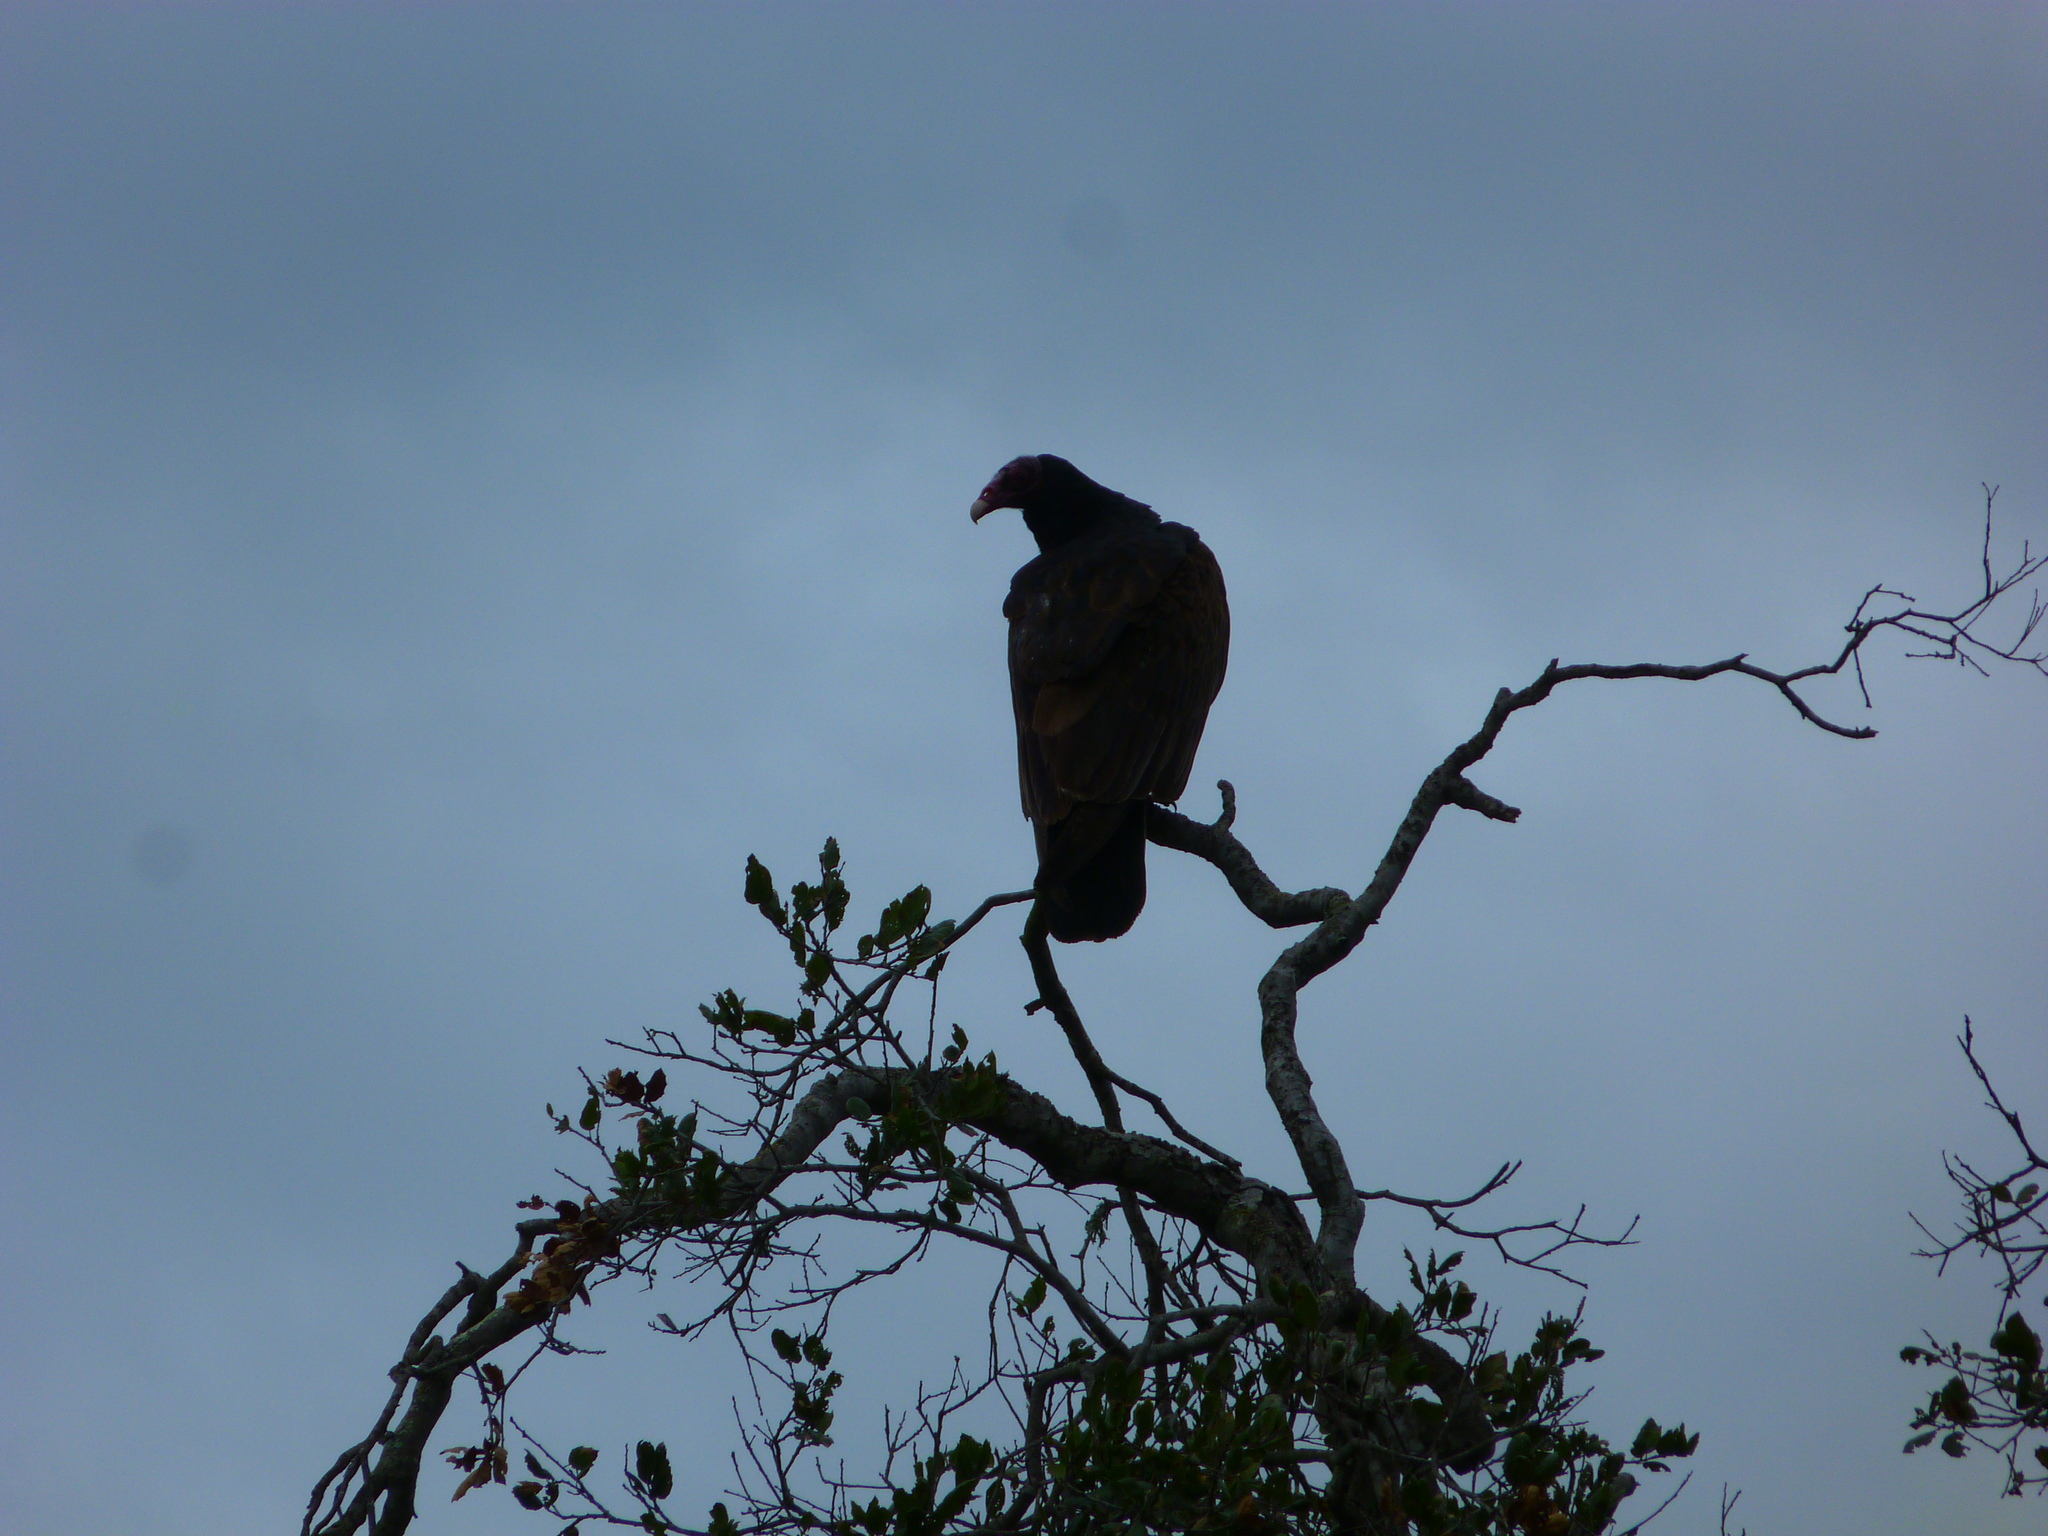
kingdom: Animalia
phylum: Chordata
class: Aves
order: Accipitriformes
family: Cathartidae
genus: Cathartes
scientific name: Cathartes aura
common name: Turkey vulture
